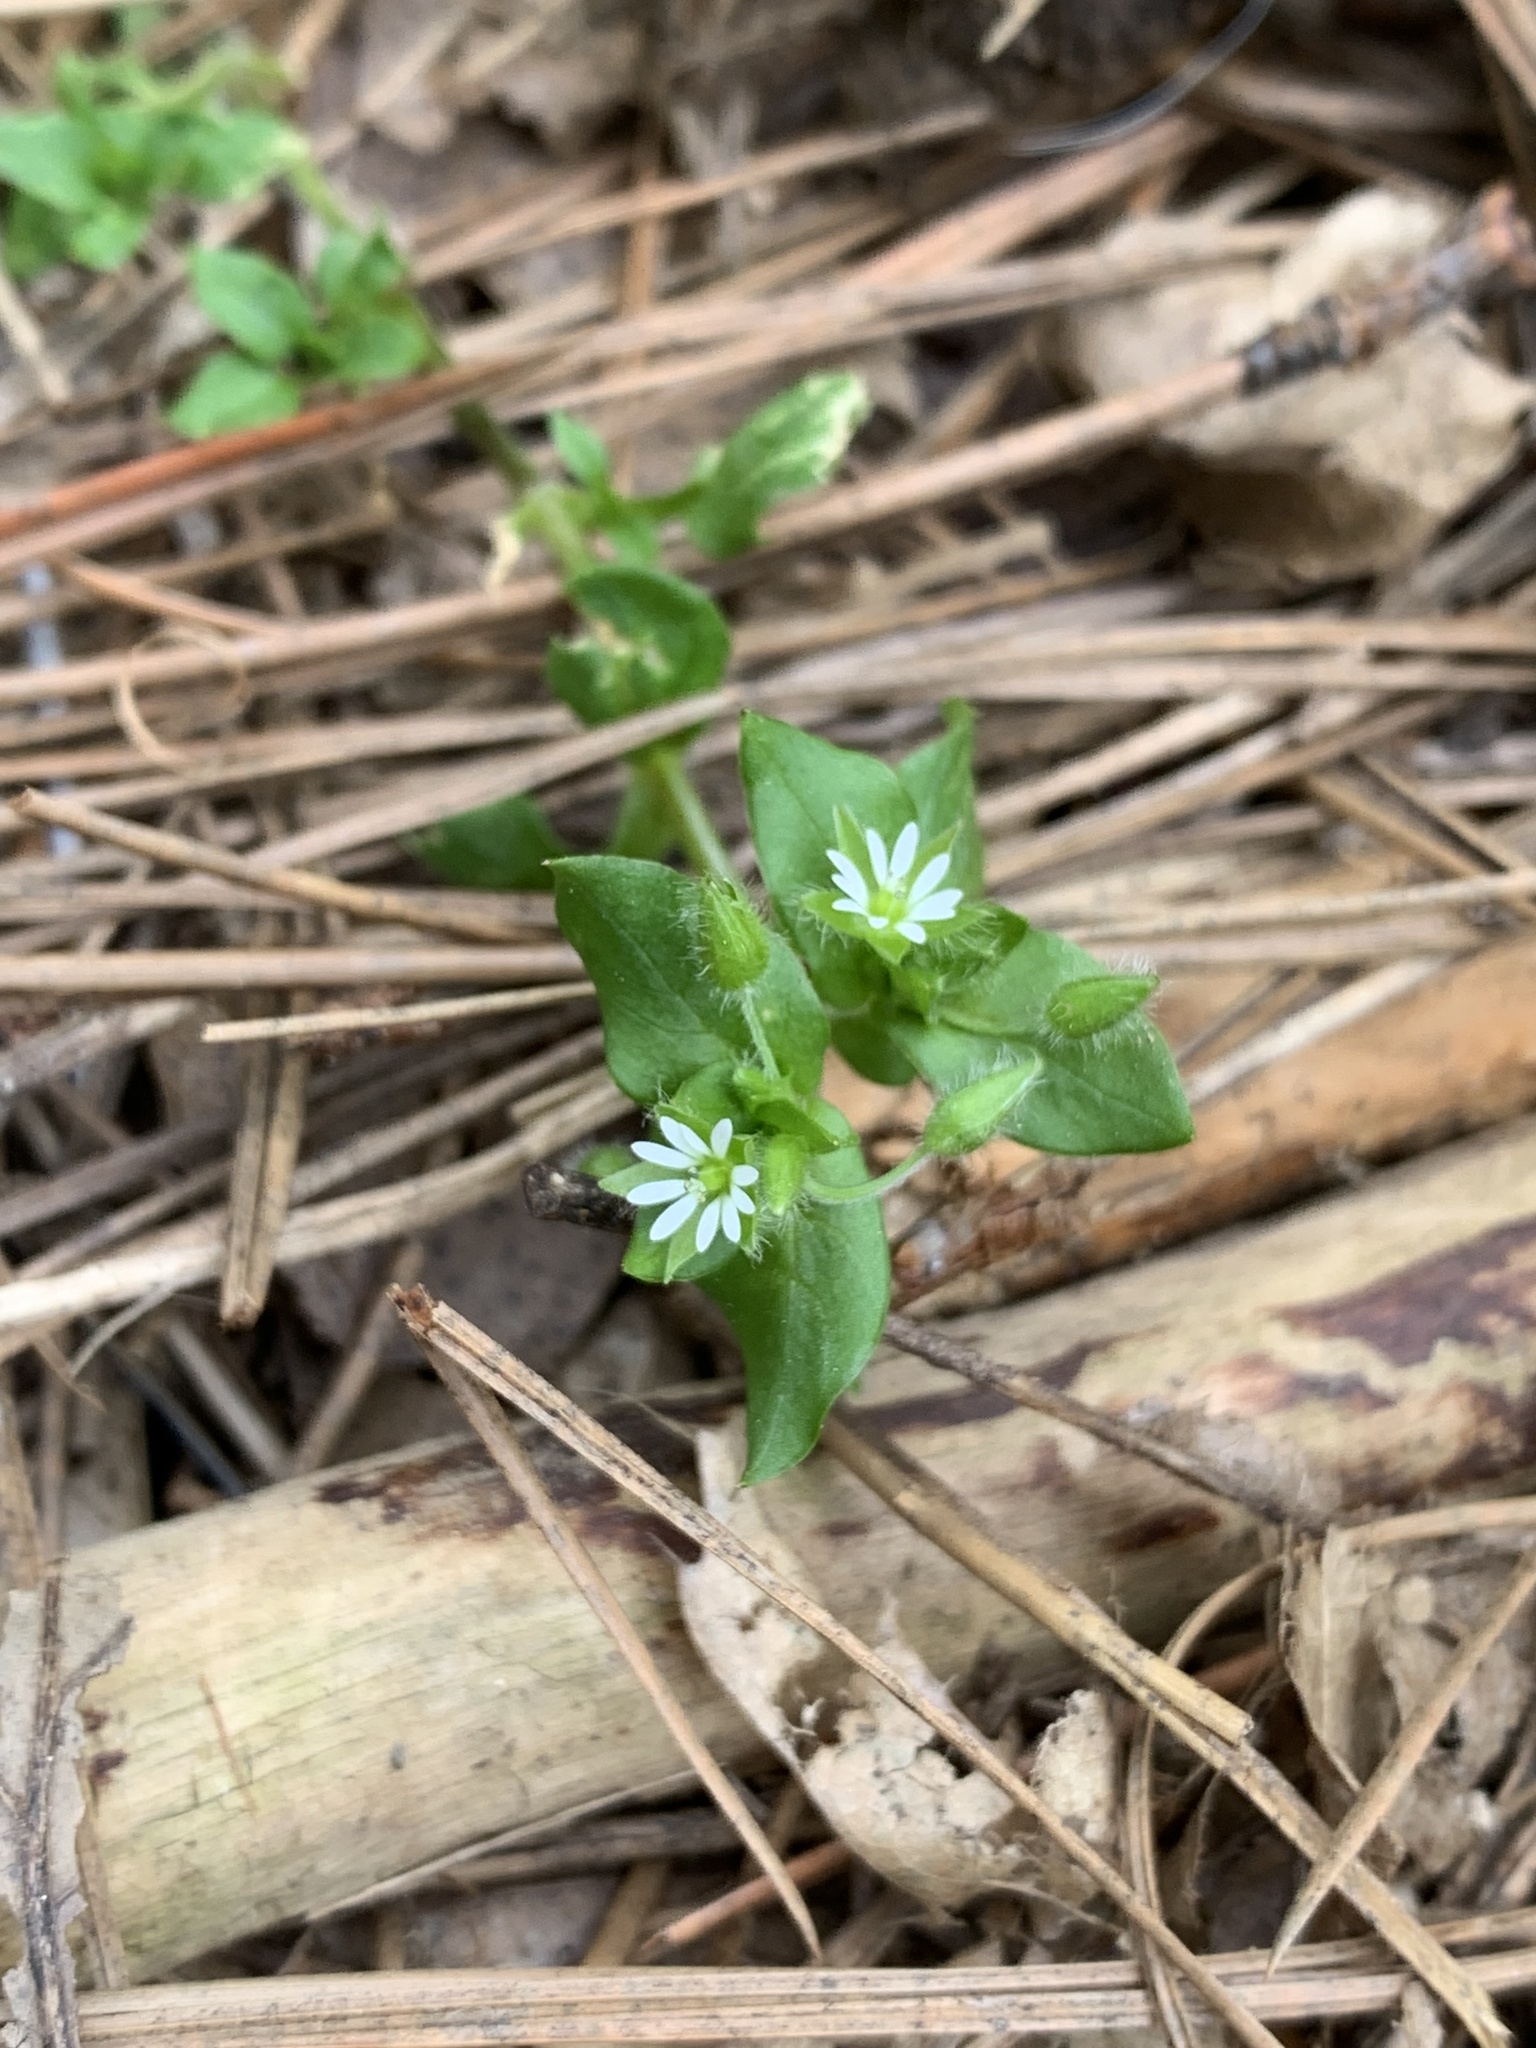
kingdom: Plantae
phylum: Tracheophyta
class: Magnoliopsida
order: Caryophyllales
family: Caryophyllaceae
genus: Stellaria
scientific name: Stellaria media
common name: Common chickweed
